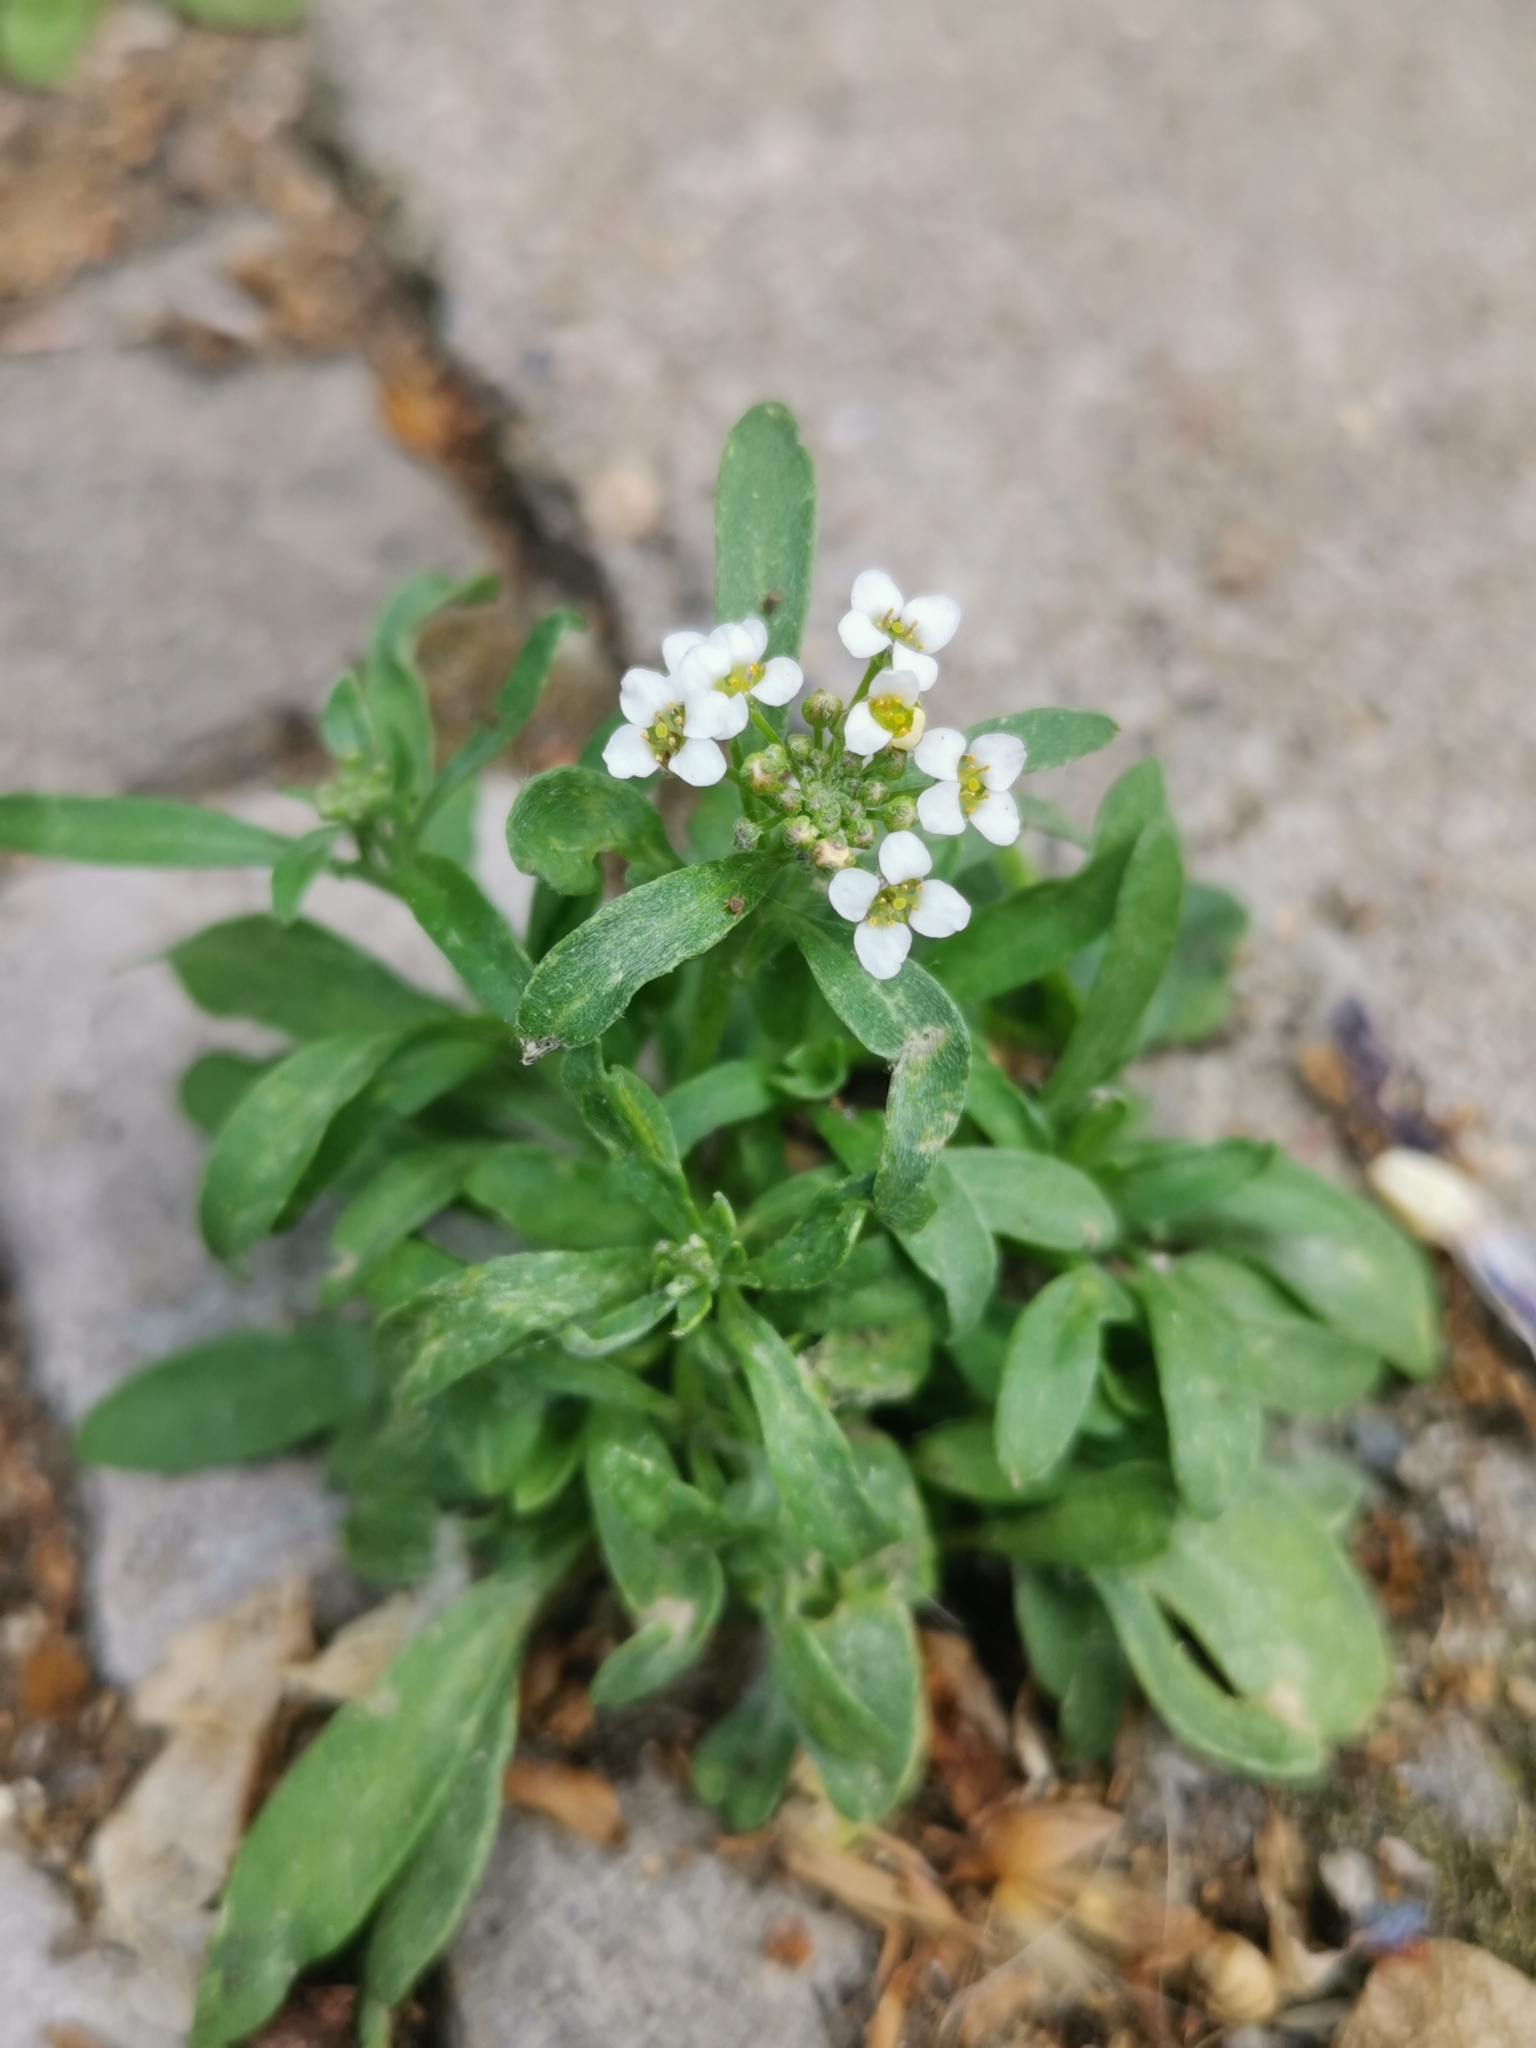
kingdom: Plantae
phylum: Tracheophyta
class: Magnoliopsida
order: Brassicales
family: Brassicaceae
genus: Lobularia
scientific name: Lobularia maritima
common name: Sweet alison
